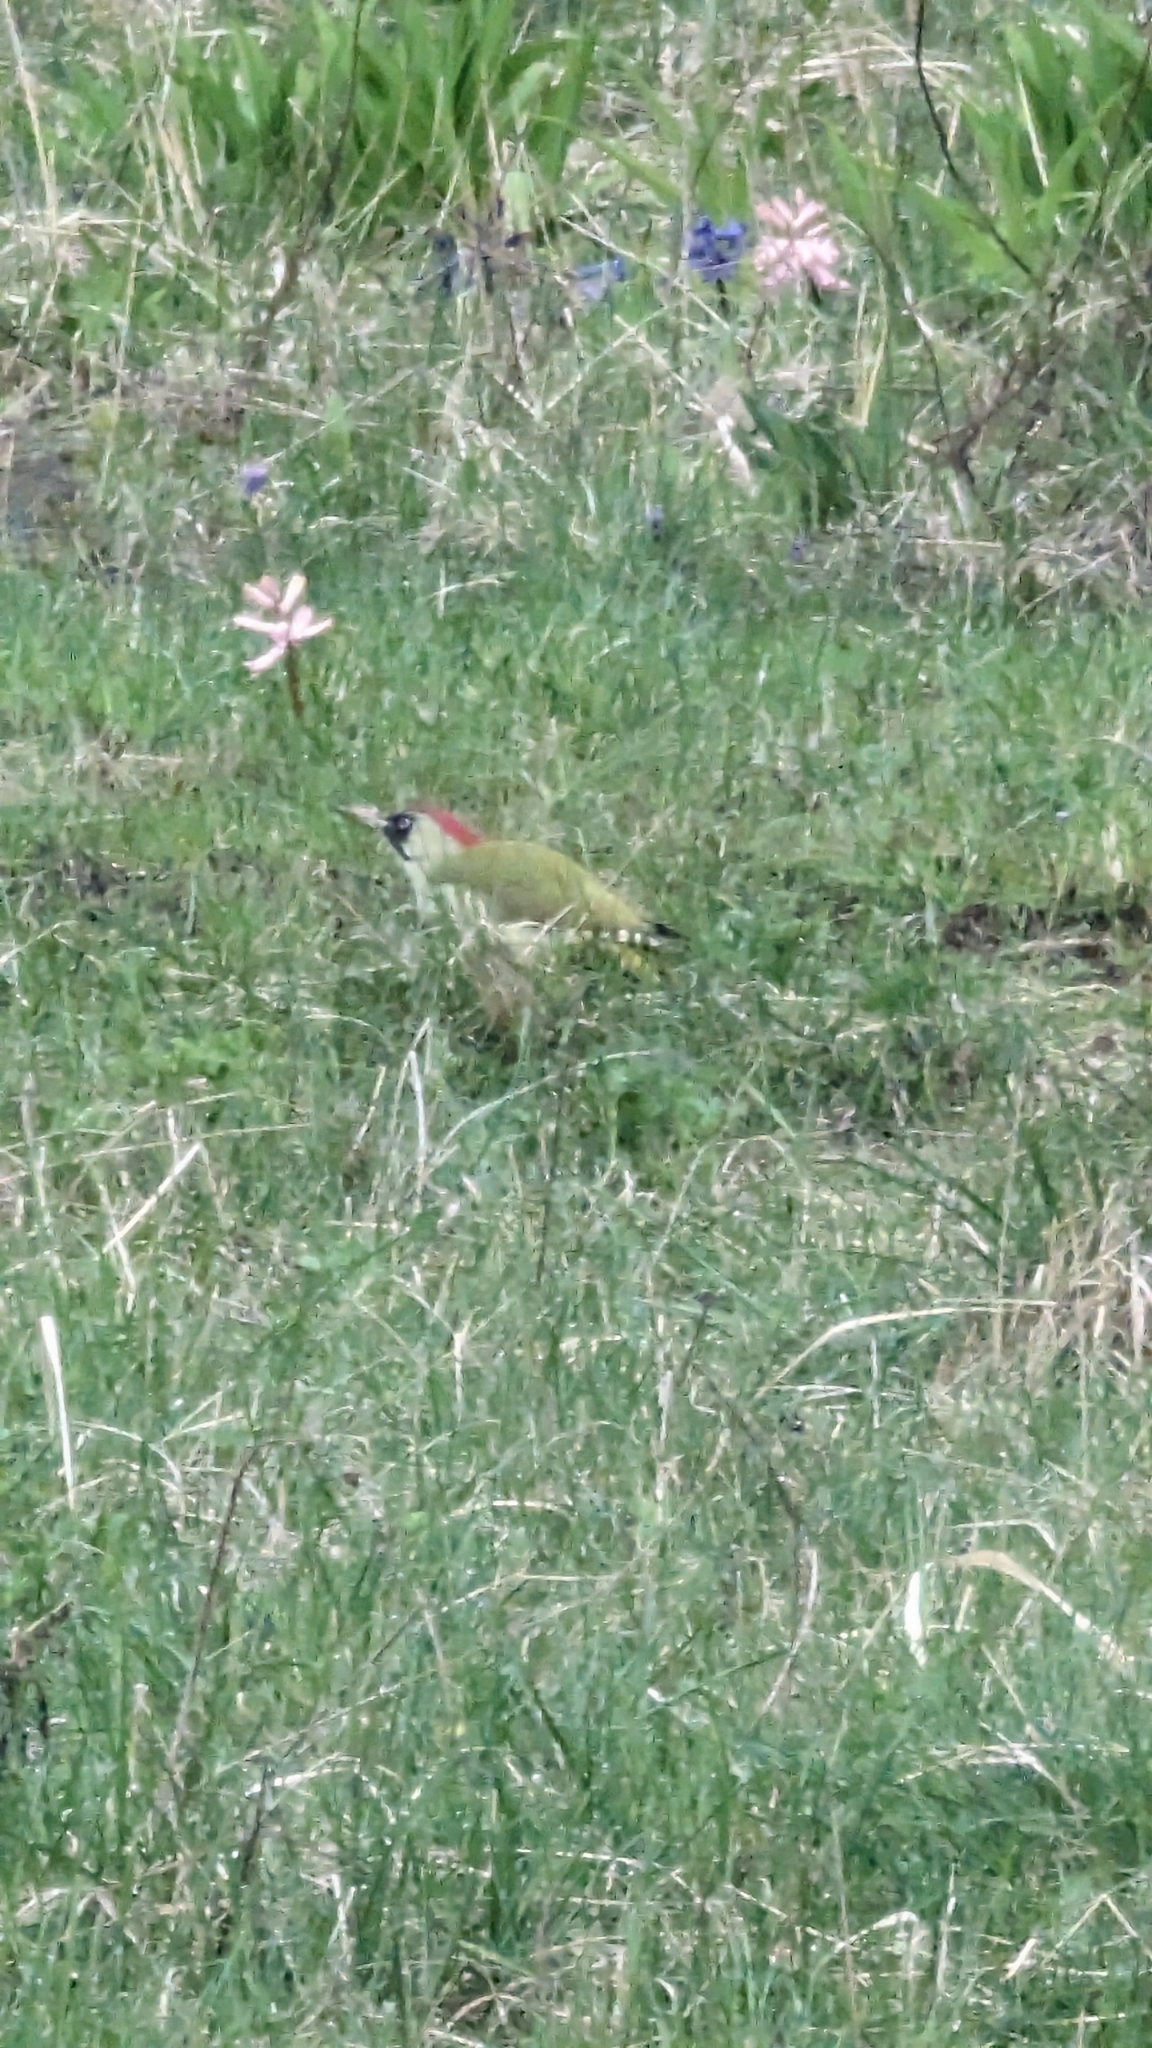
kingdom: Animalia
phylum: Chordata
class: Aves
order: Piciformes
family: Picidae
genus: Picus
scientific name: Picus viridis
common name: European green woodpecker
